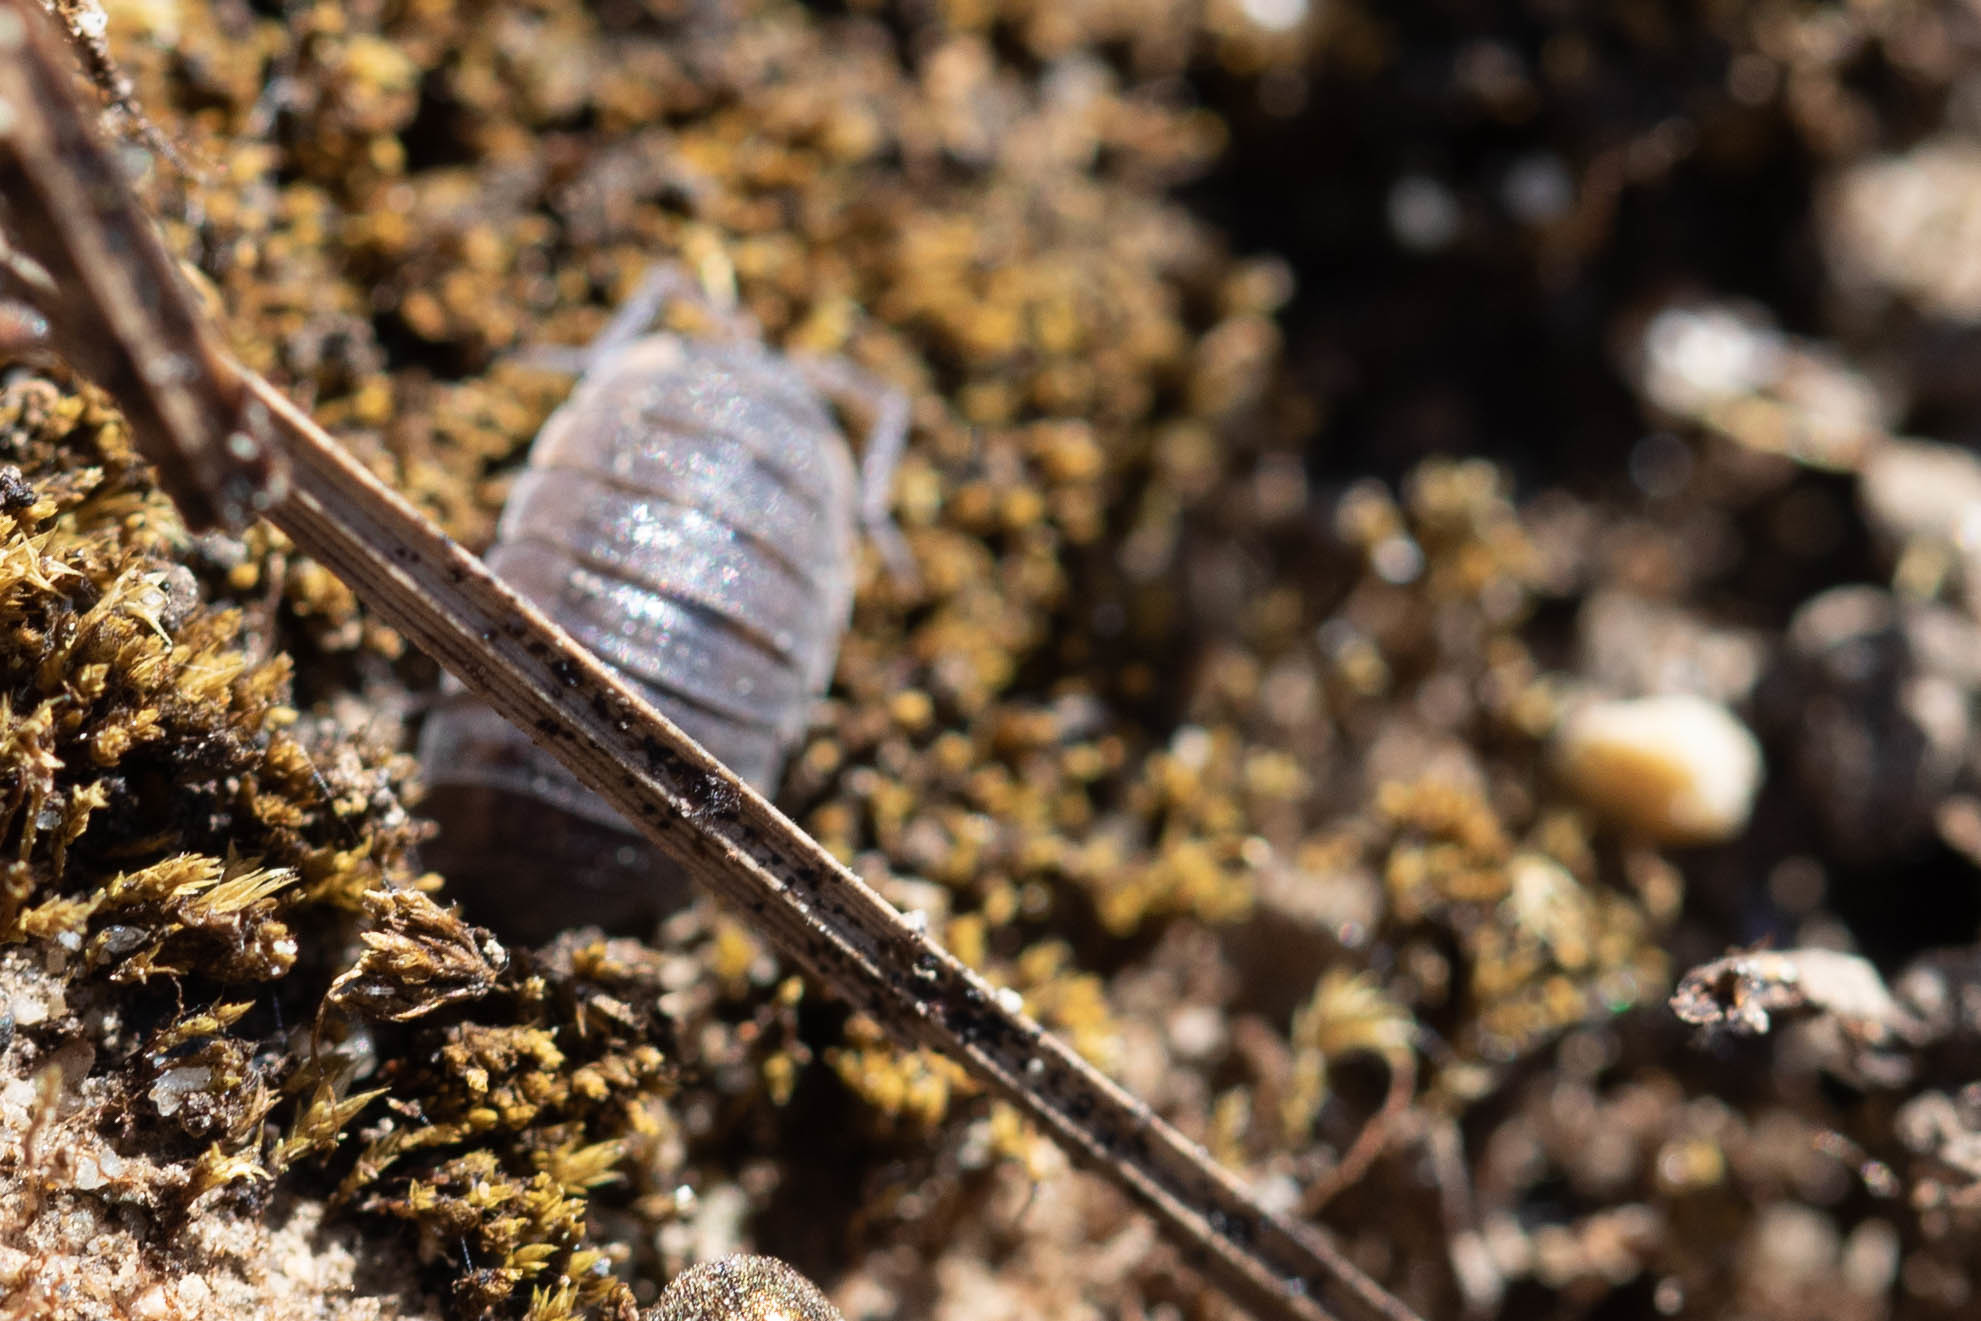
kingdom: Animalia
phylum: Arthropoda
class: Malacostraca
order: Isopoda
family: Porcellionidae
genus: Porcellio
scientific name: Porcellio scaber
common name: Common rough woodlouse
